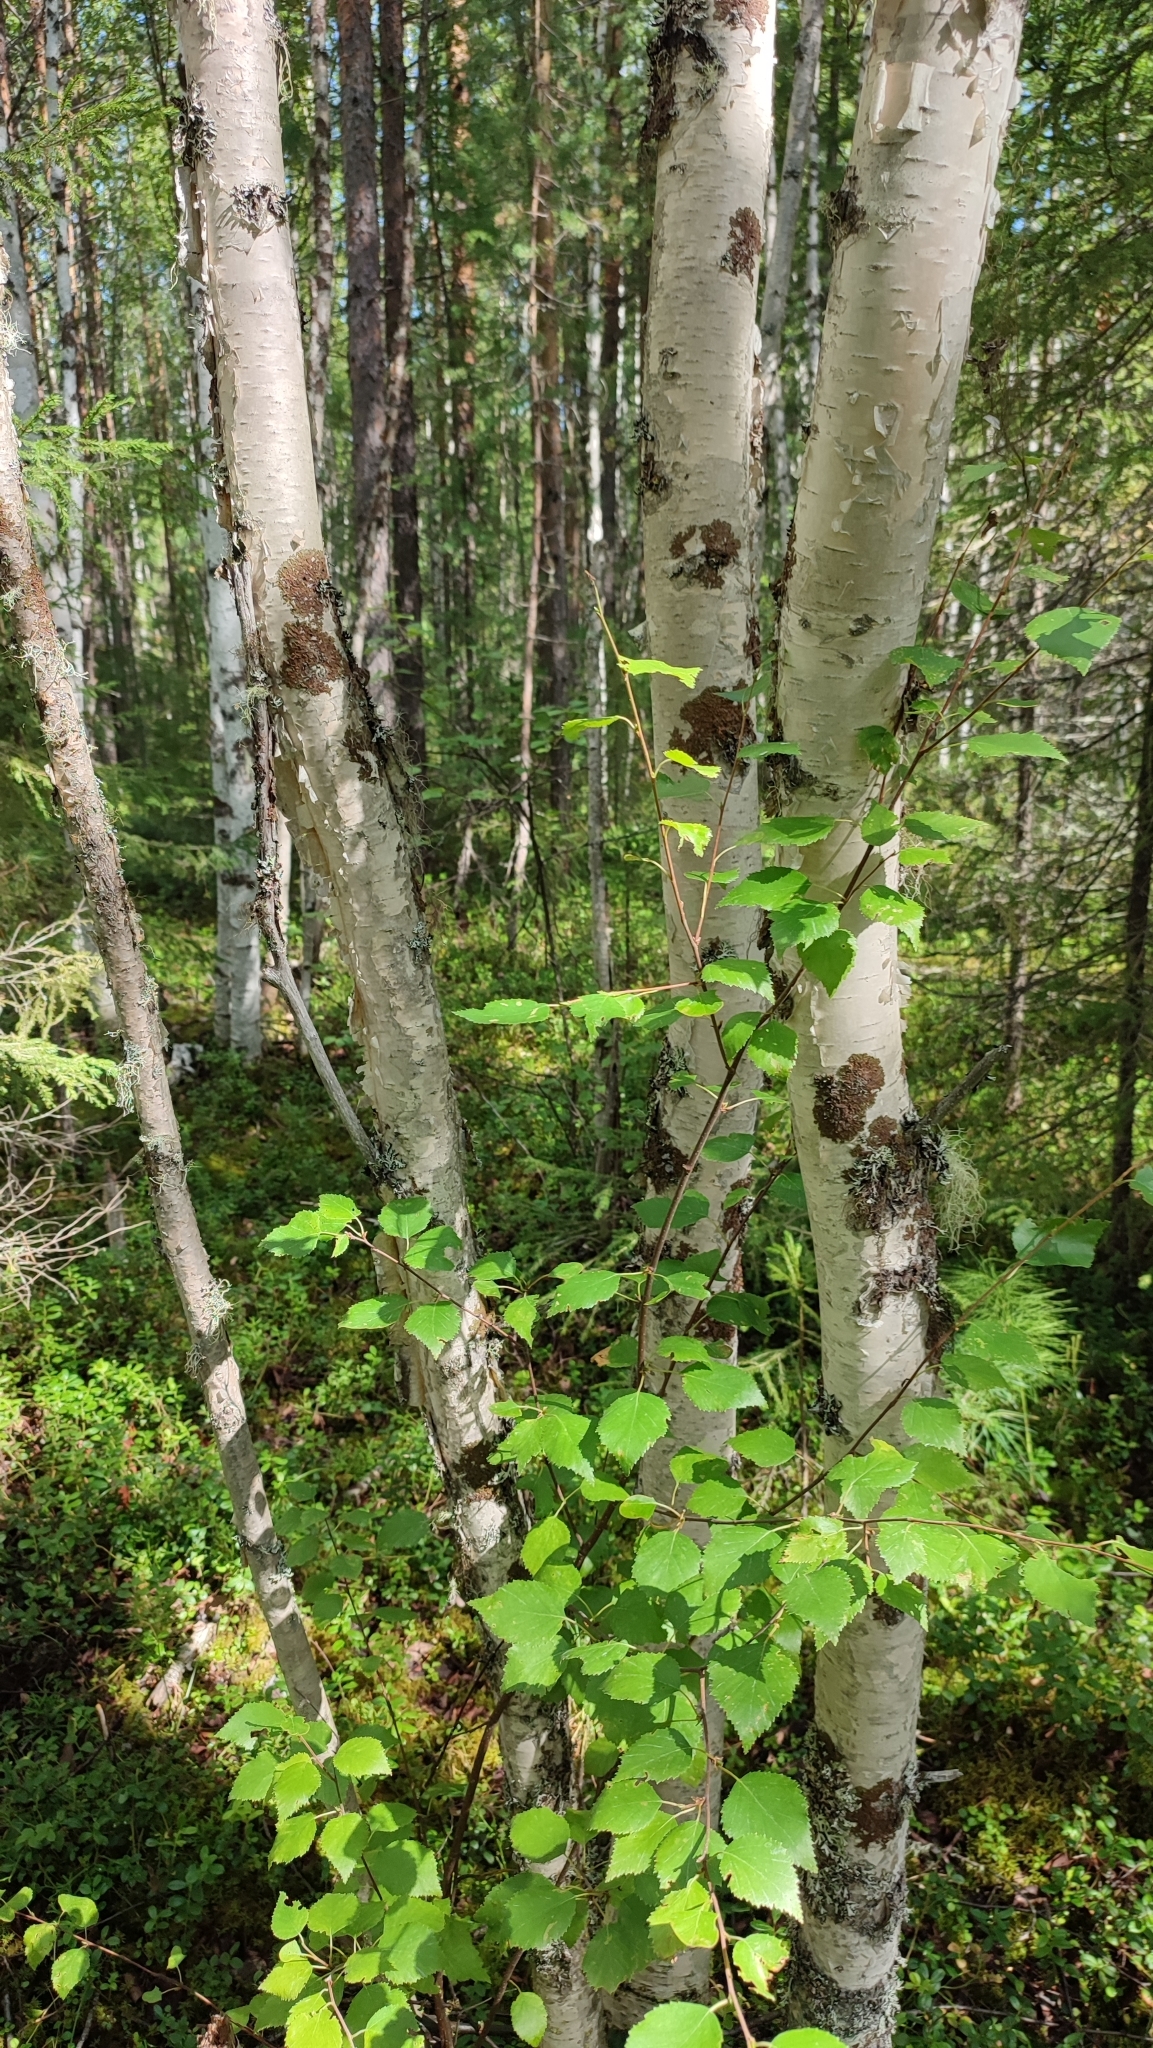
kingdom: Plantae
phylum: Tracheophyta
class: Magnoliopsida
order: Fagales
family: Betulaceae
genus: Betula
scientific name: Betula pubescens
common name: Downy birch
